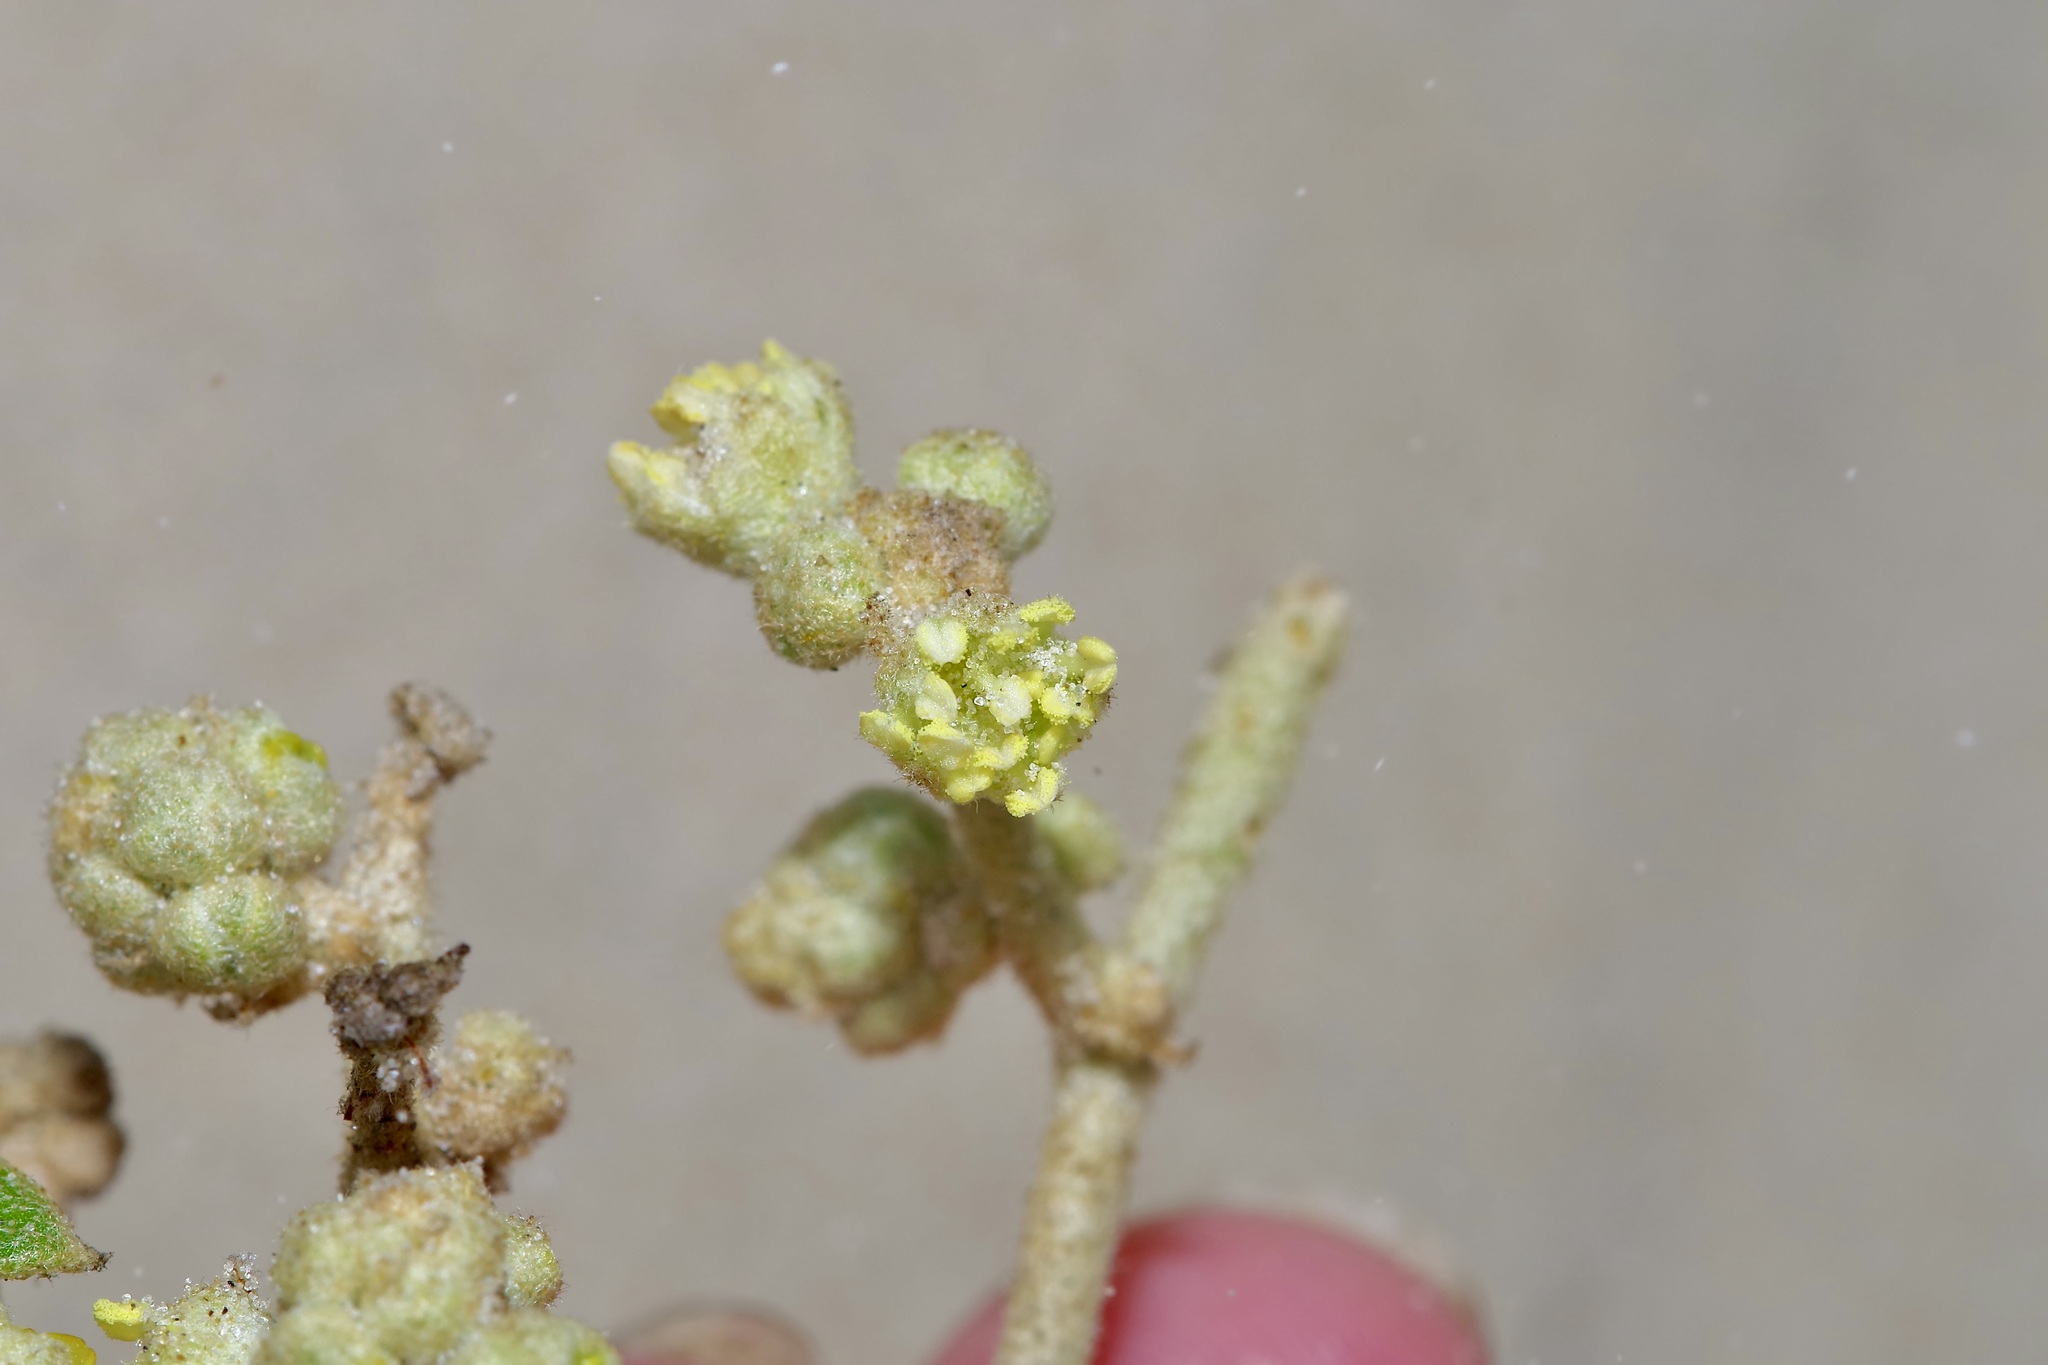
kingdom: Plantae
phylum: Tracheophyta
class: Magnoliopsida
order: Malpighiales
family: Euphorbiaceae
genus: Croton
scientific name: Croton punctatus
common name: Beach-tea
